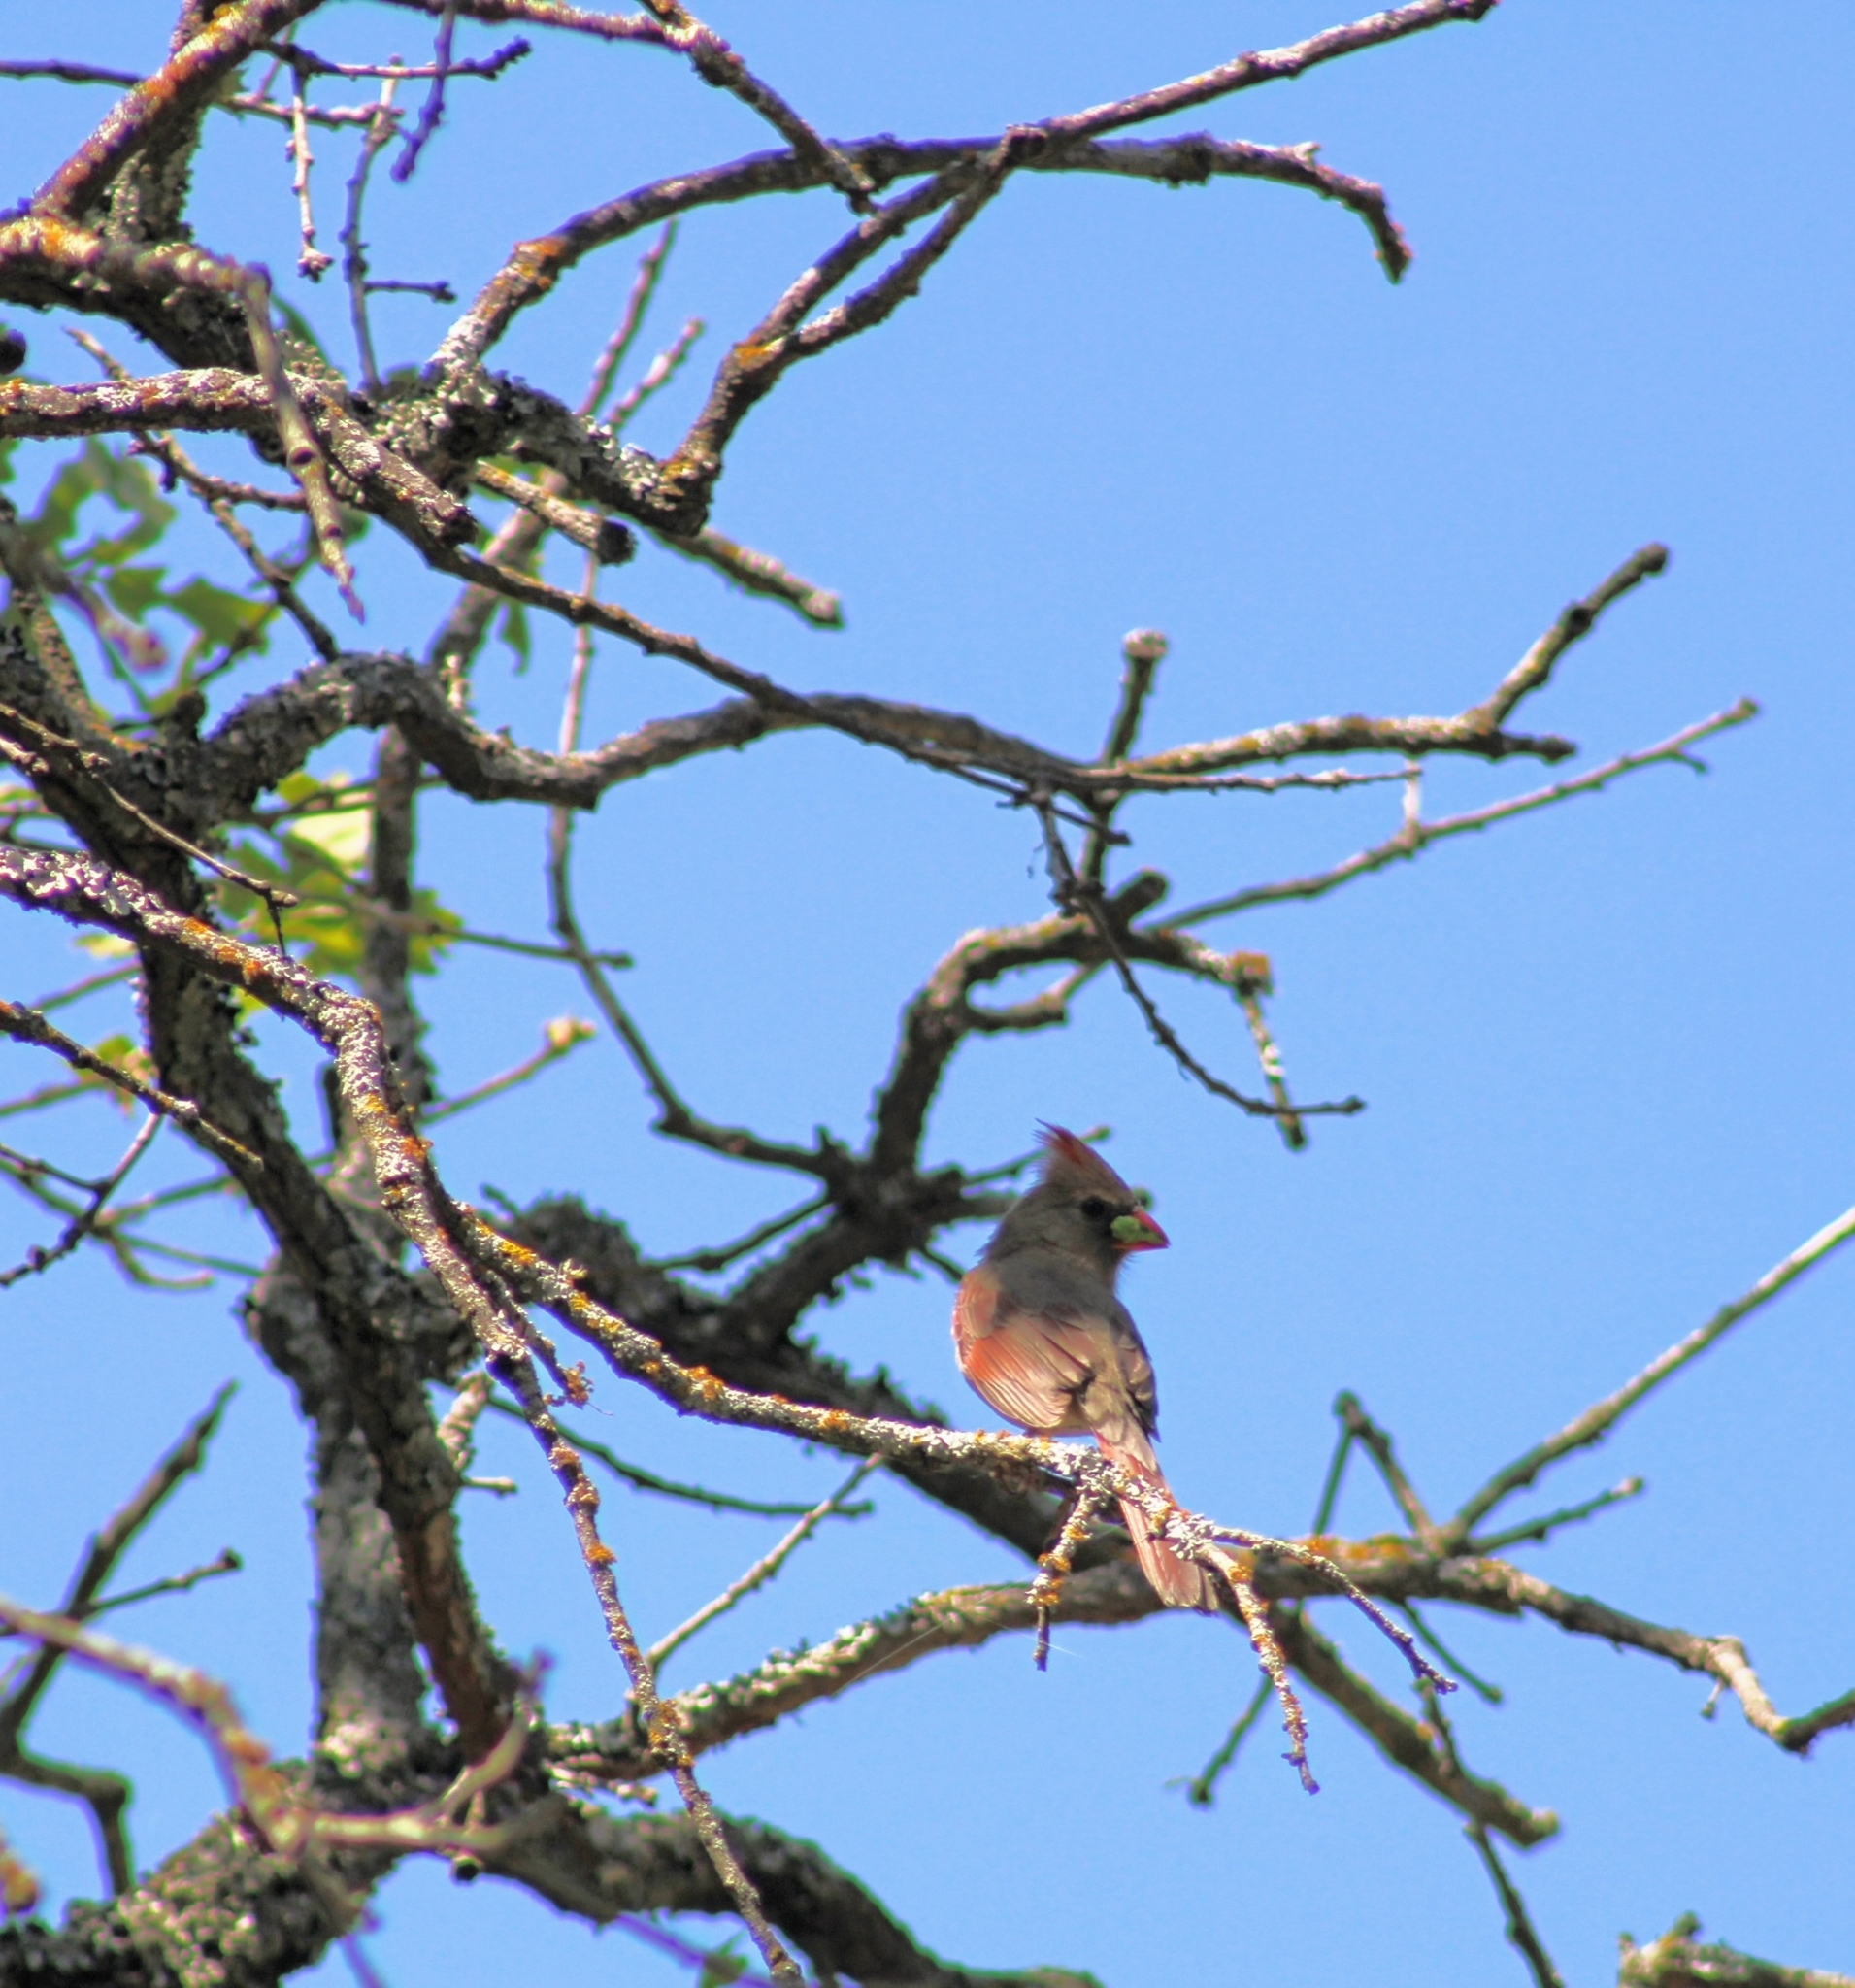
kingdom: Animalia
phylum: Chordata
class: Aves
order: Passeriformes
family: Cardinalidae
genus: Cardinalis
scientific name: Cardinalis cardinalis
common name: Northern cardinal
